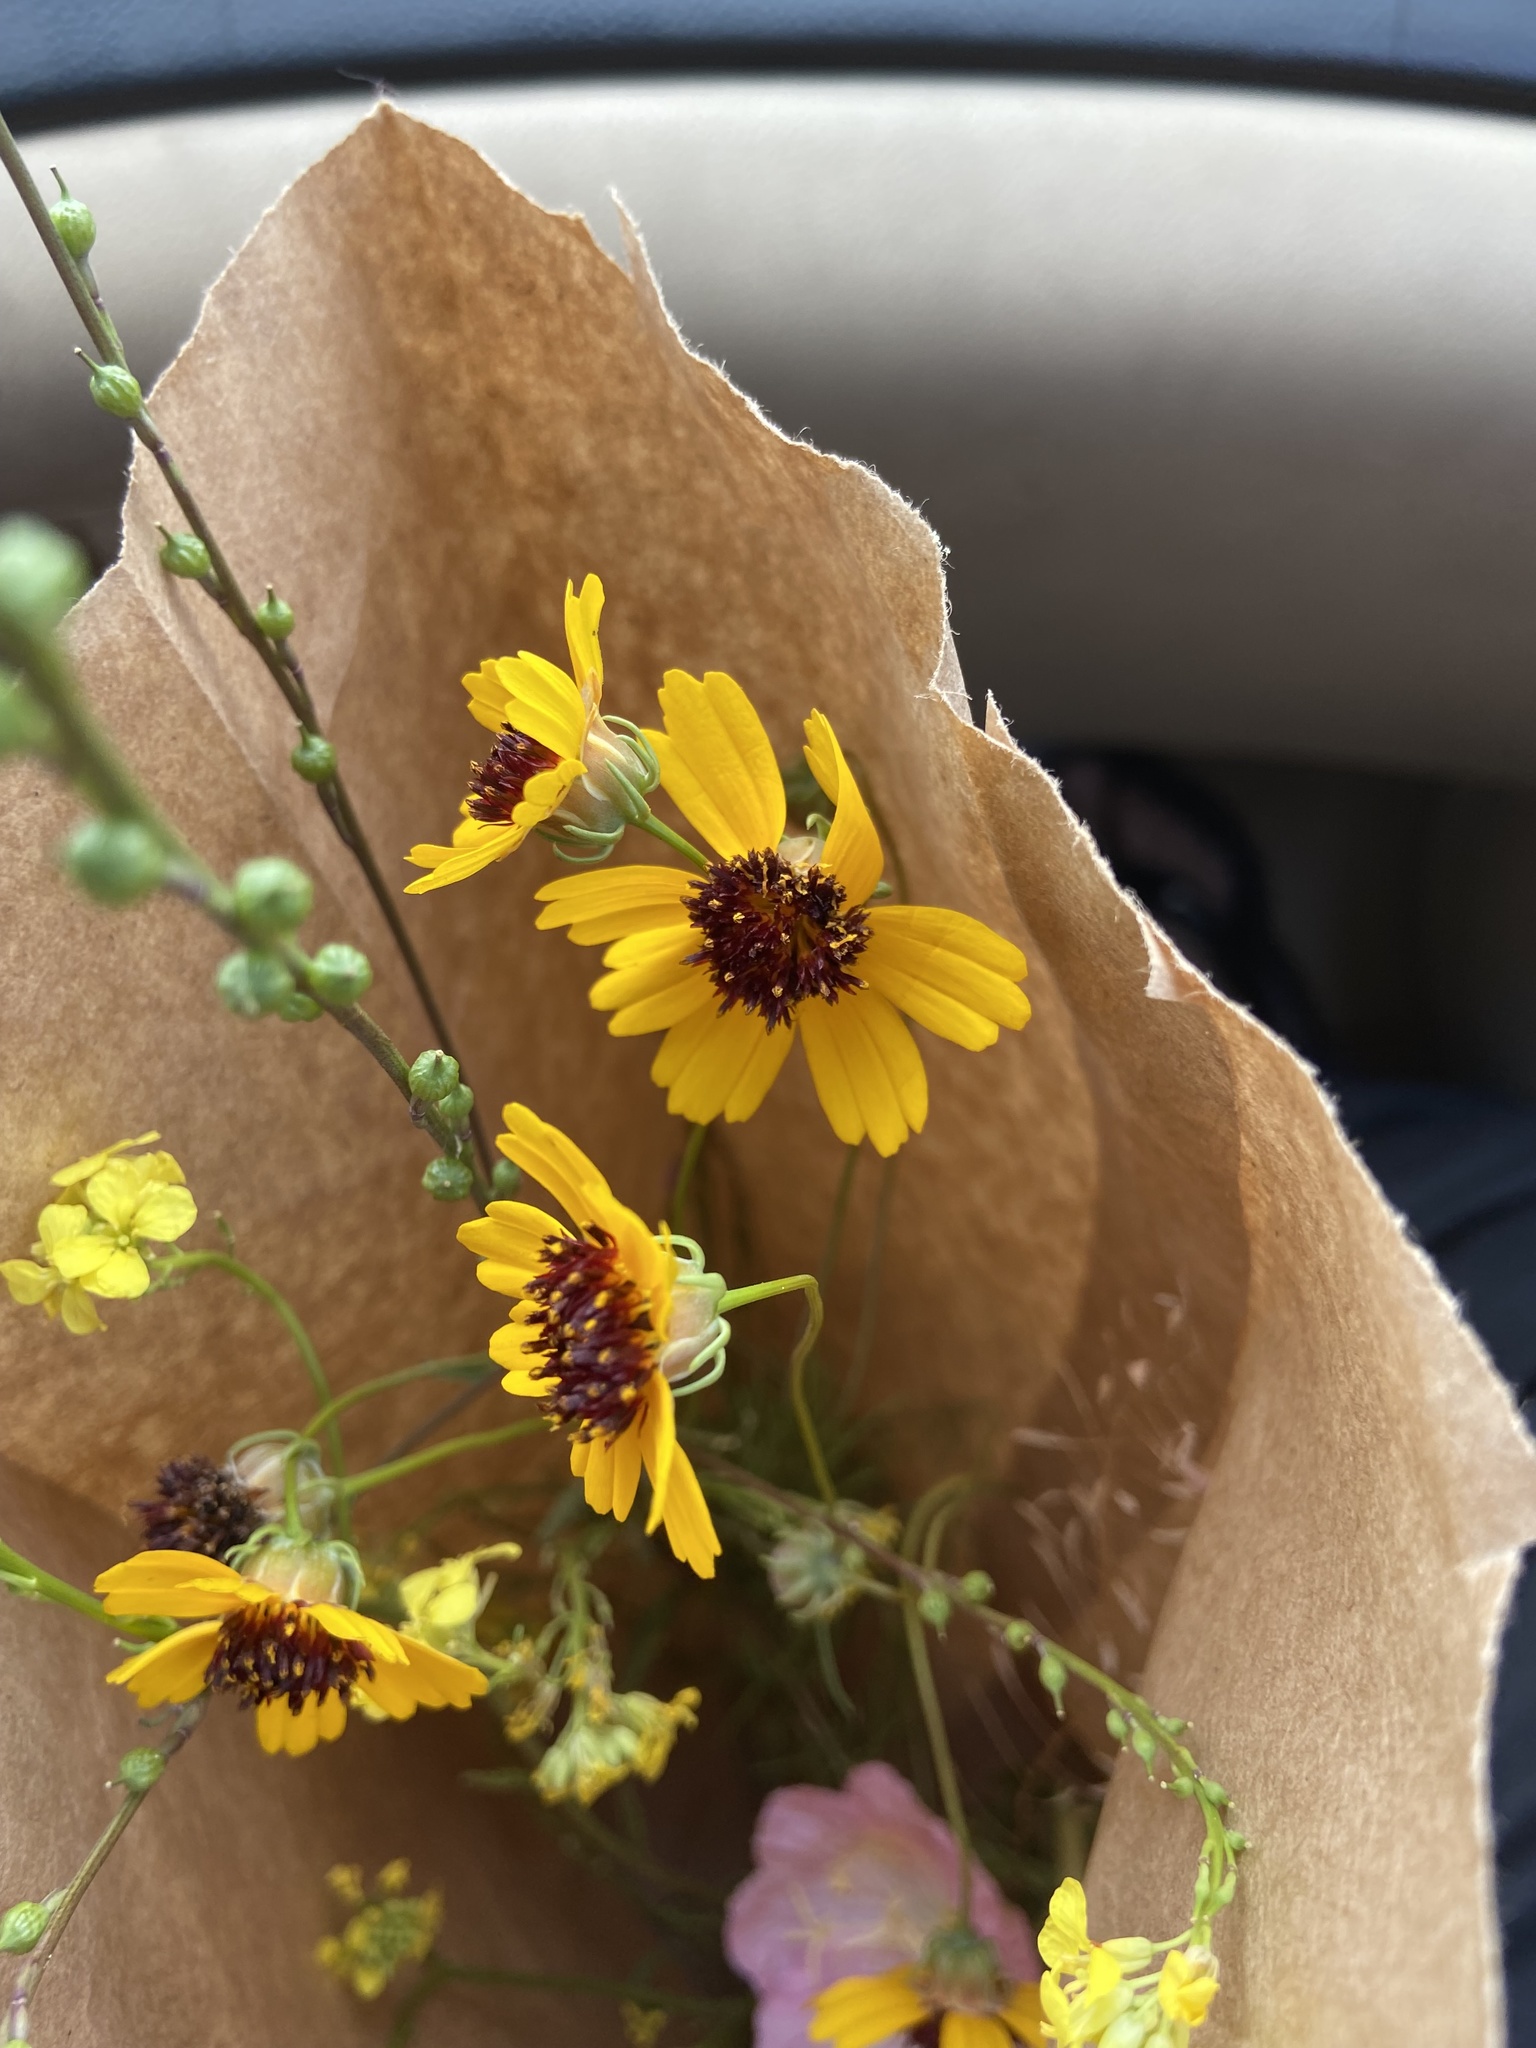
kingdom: Plantae
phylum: Tracheophyta
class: Magnoliopsida
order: Asterales
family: Asteraceae
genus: Thelesperma
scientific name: Thelesperma filifolium
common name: Stiff greenthread
